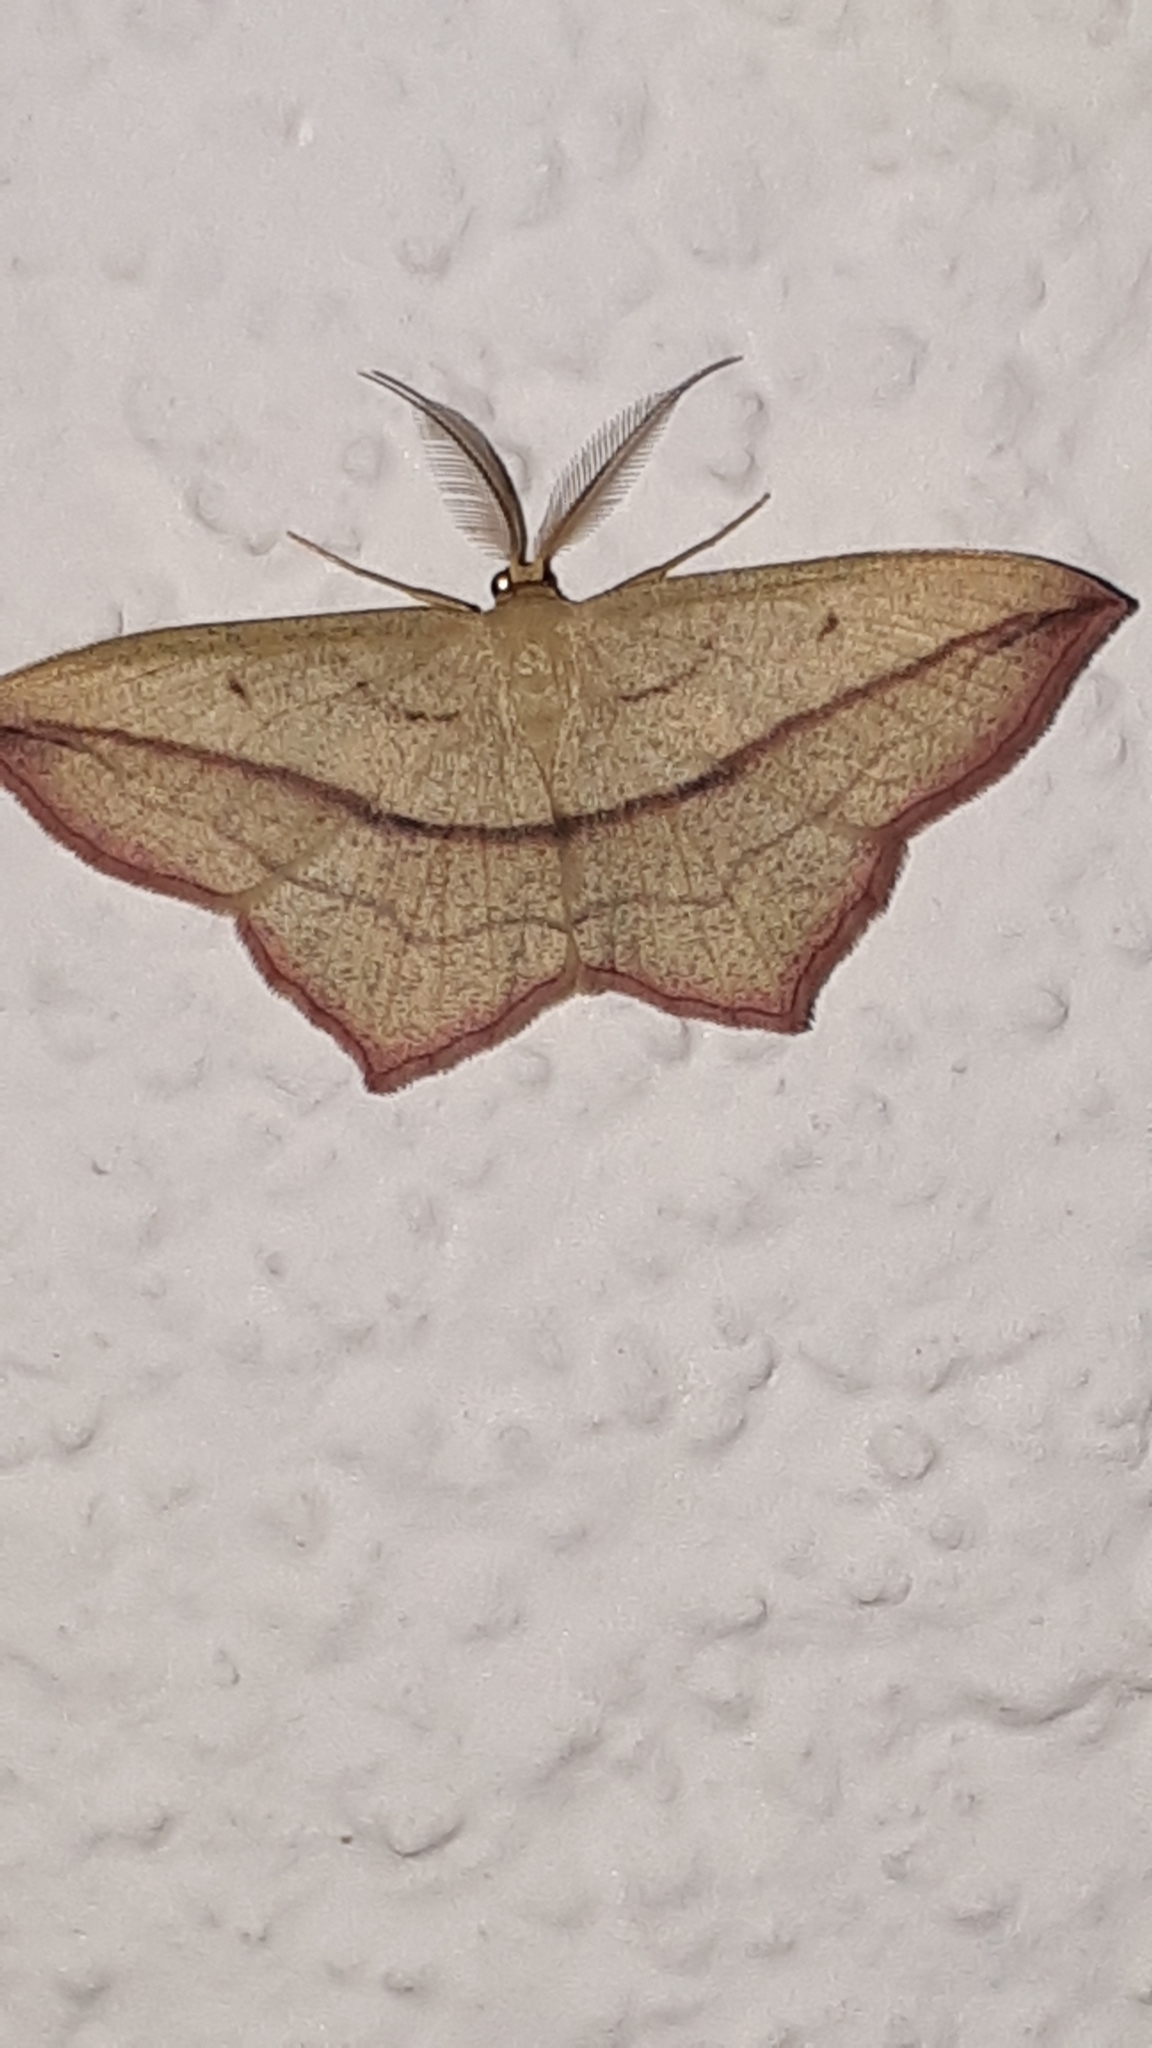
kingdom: Animalia
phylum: Arthropoda
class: Insecta
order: Lepidoptera
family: Geometridae
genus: Timandra
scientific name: Timandra comae
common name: Blood-vein
